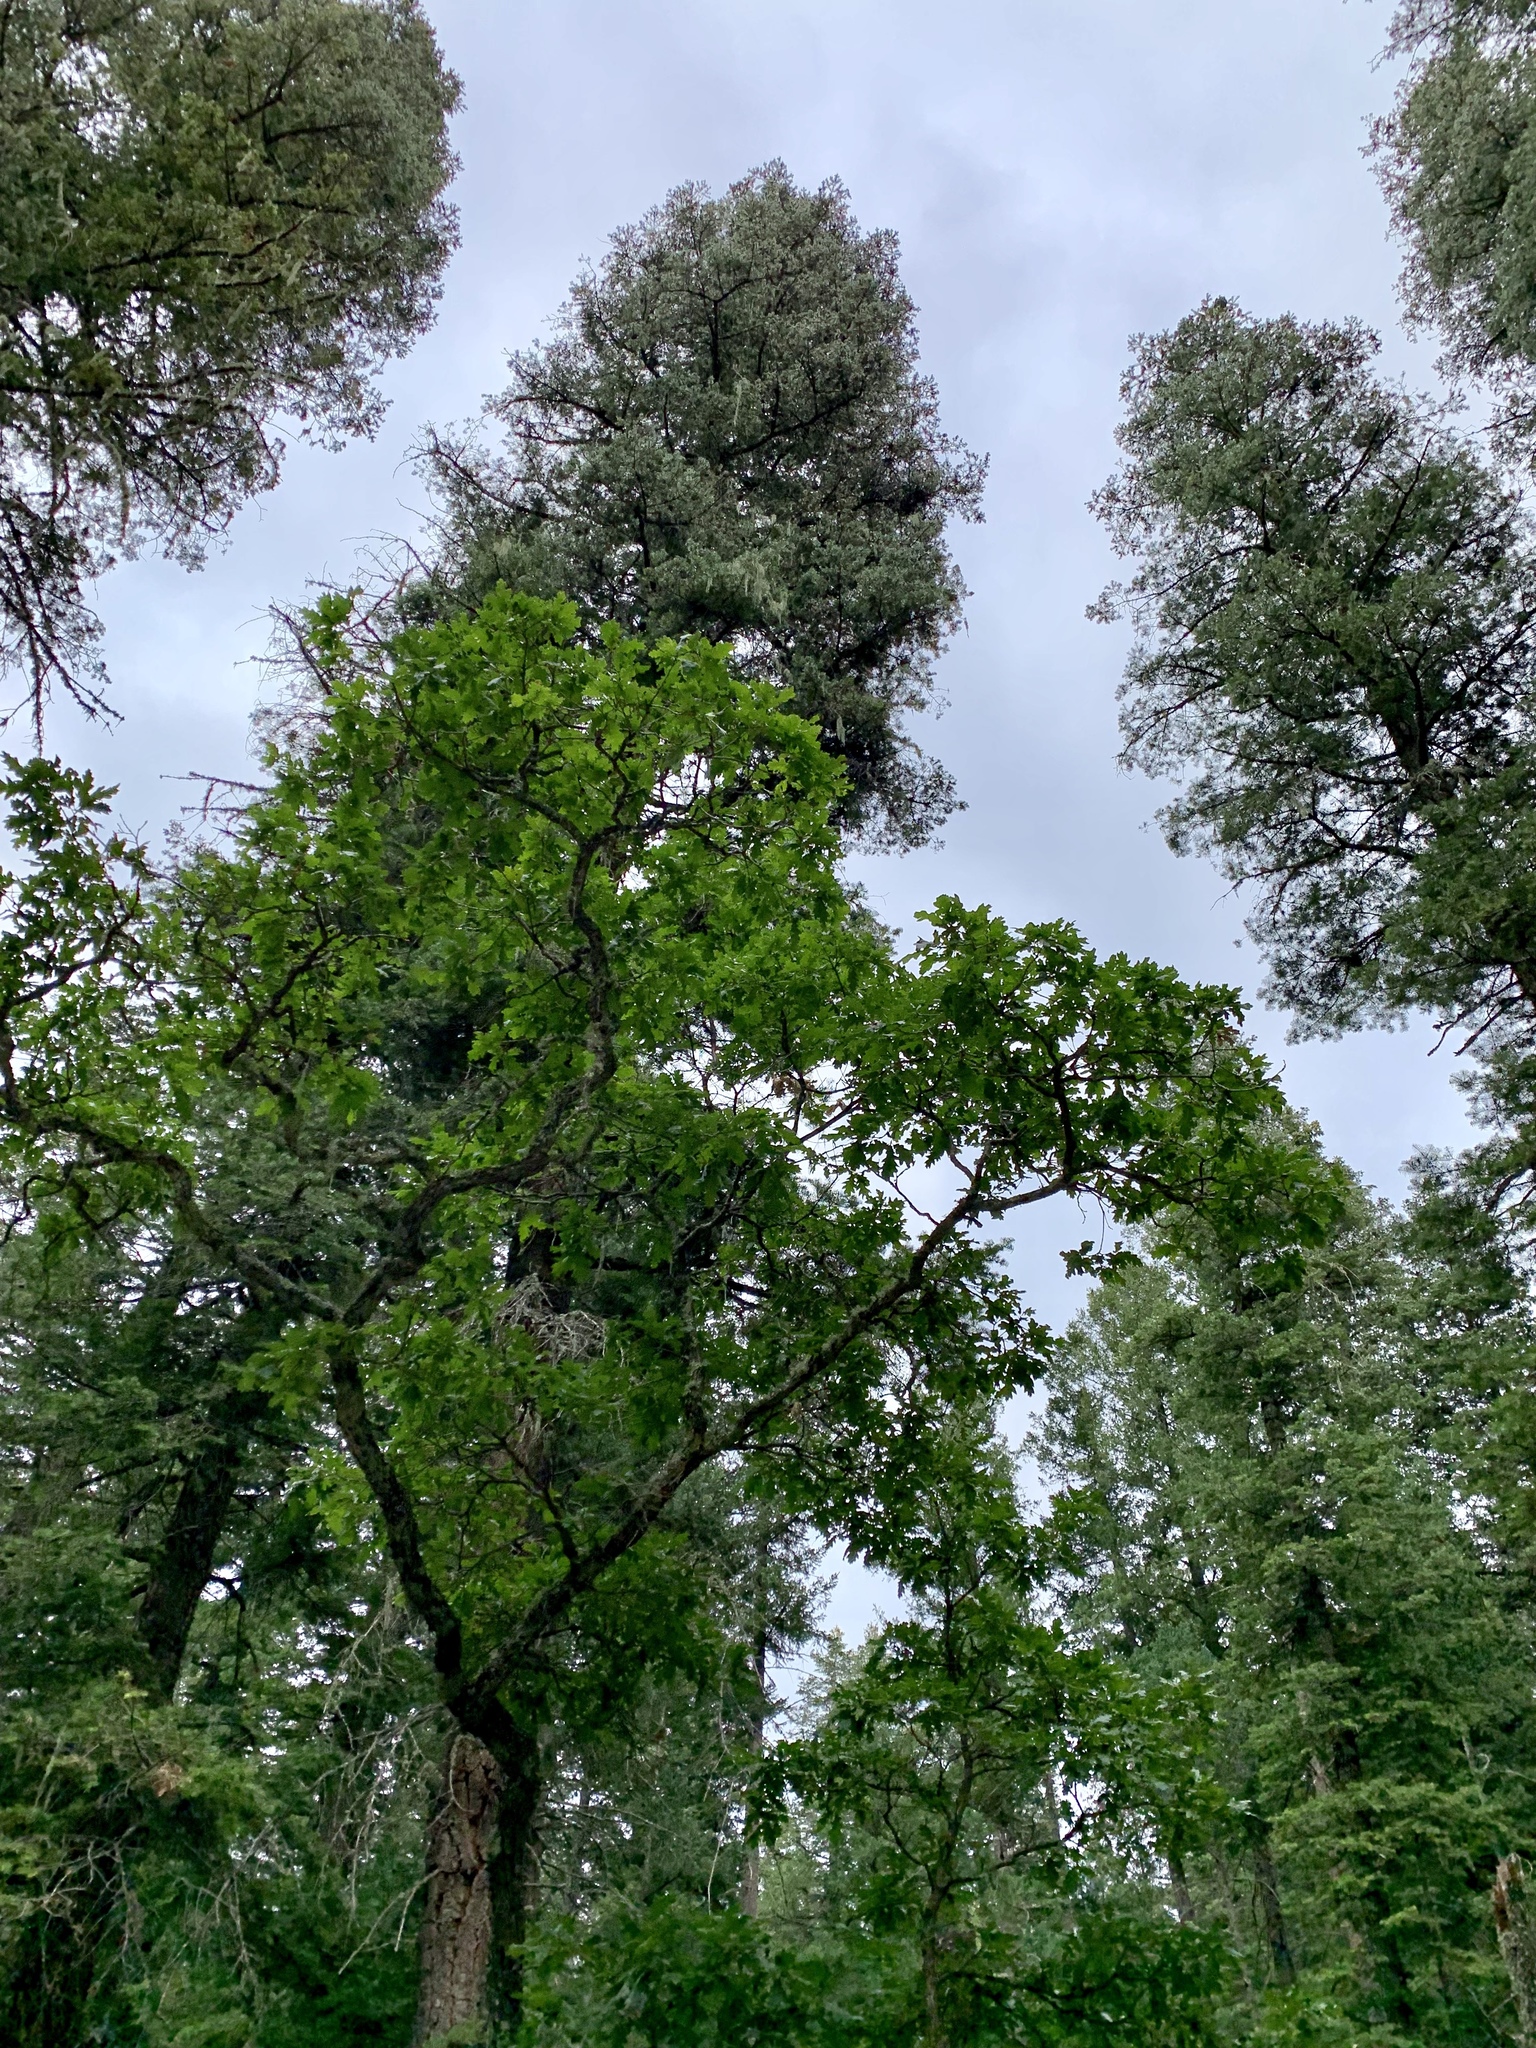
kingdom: Plantae
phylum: Tracheophyta
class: Magnoliopsida
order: Fagales
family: Fagaceae
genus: Quercus
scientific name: Quercus gambelii
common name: Gambel oak
